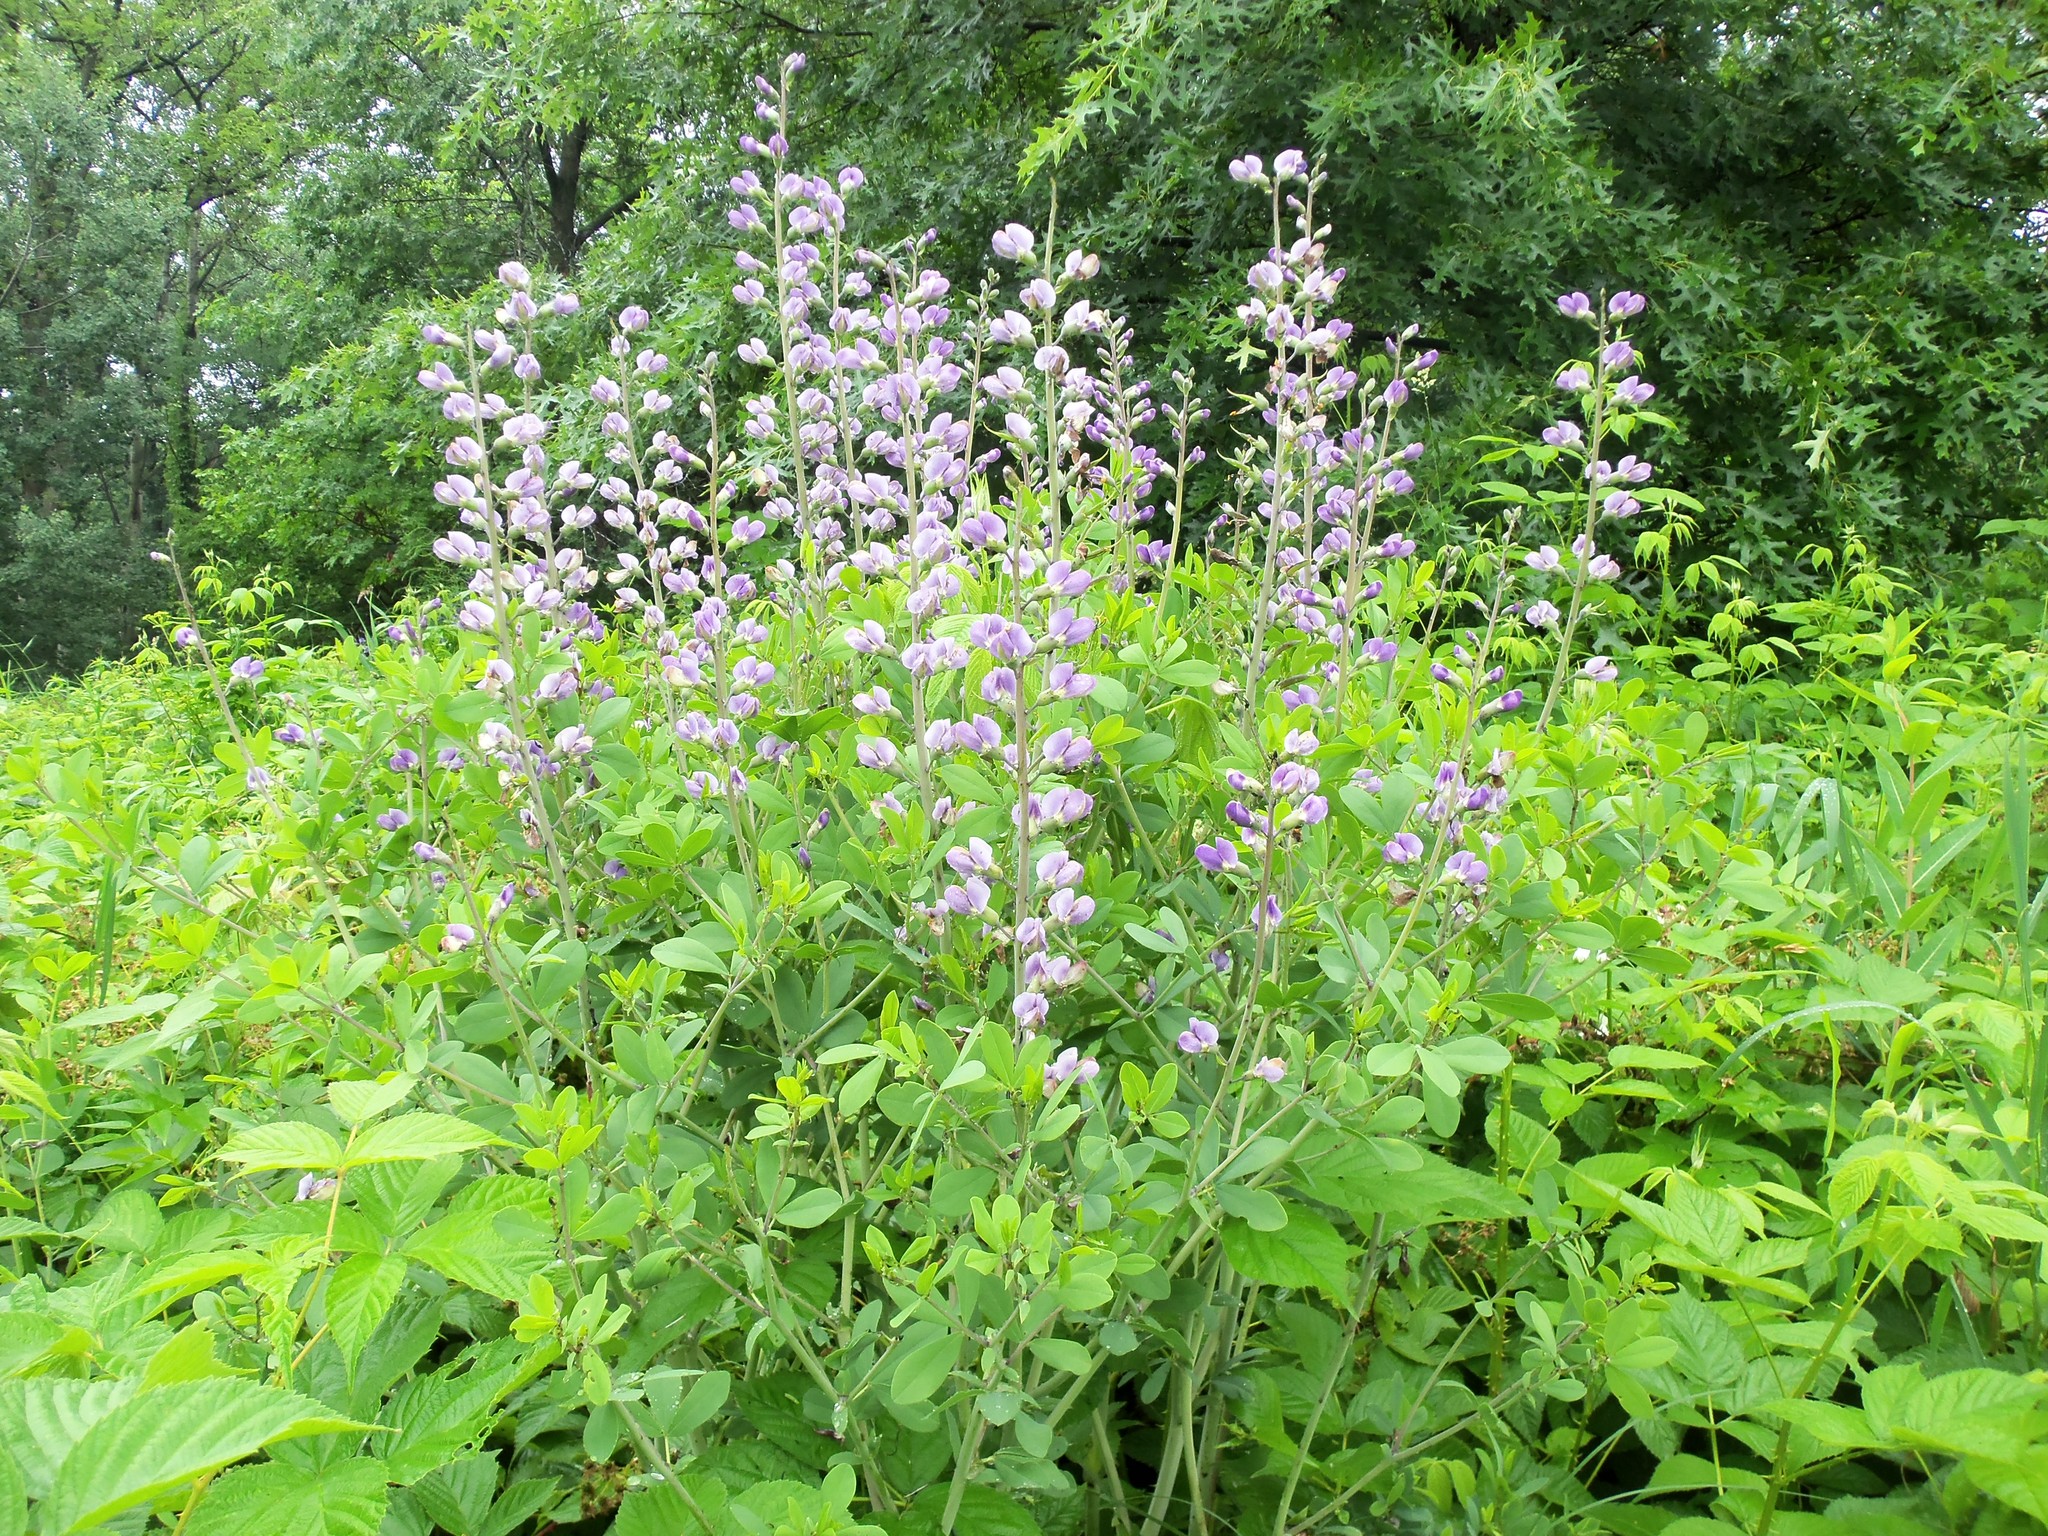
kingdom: Plantae
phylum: Tracheophyta
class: Magnoliopsida
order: Fabales
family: Fabaceae
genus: Baptisia
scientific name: Baptisia australis
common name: Blue false indigo
